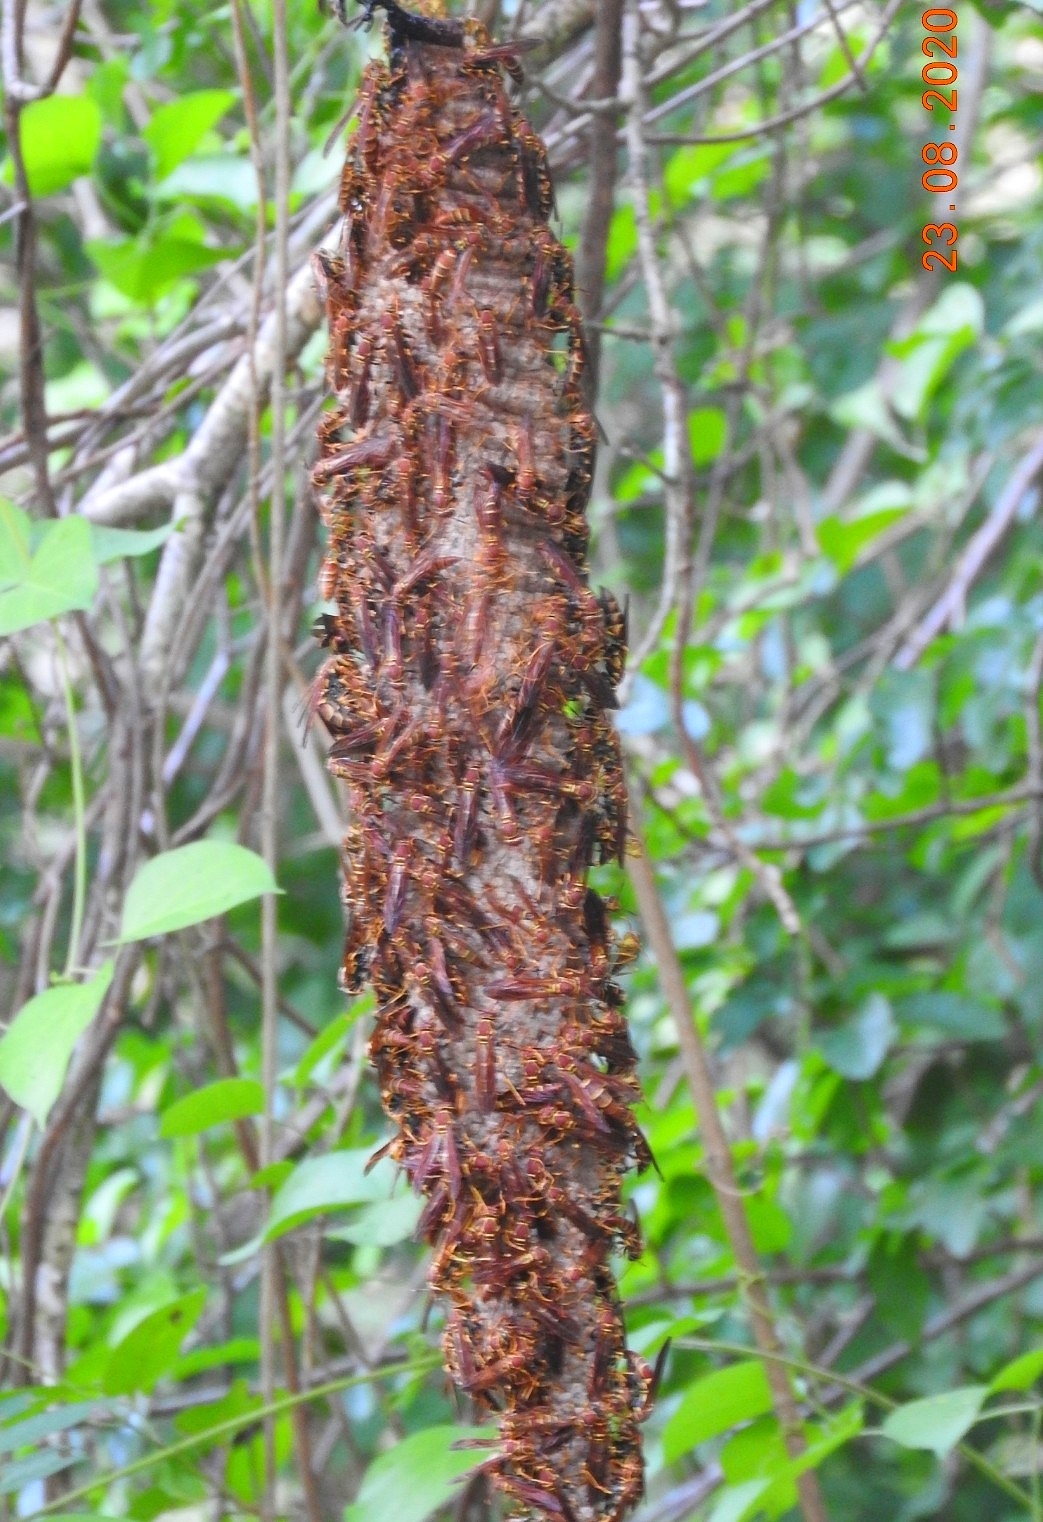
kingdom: Animalia
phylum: Arthropoda
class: Insecta
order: Hymenoptera
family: Eumenidae
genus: Polistes
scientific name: Polistes instabilis
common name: Unstable paper wasp
